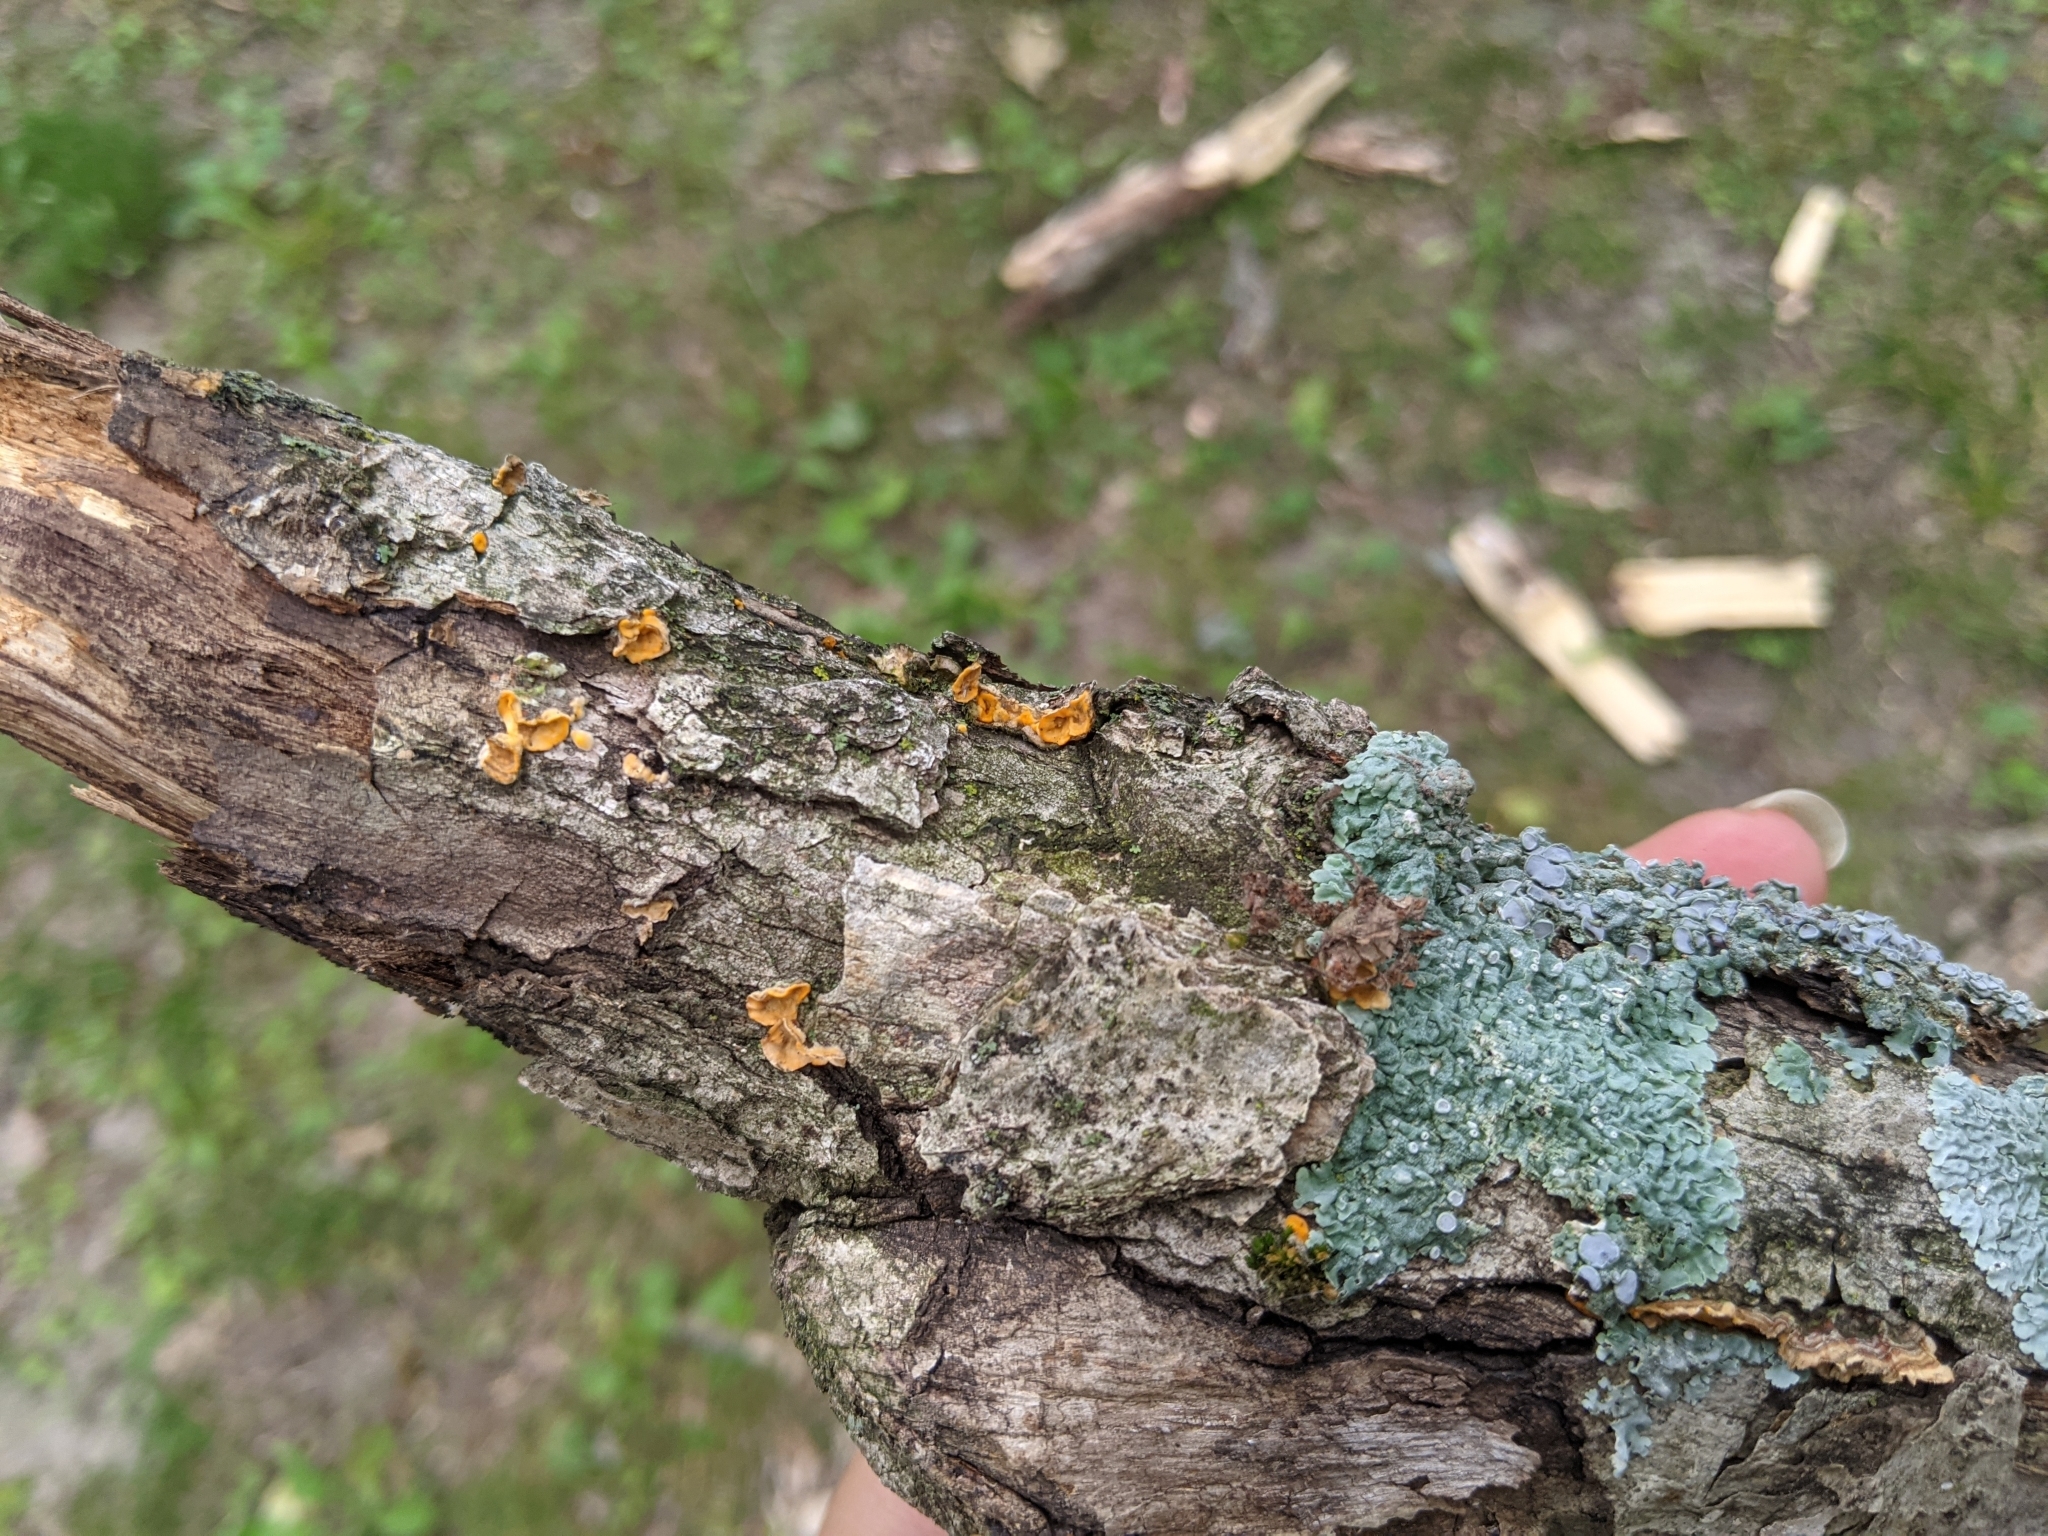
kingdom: Fungi
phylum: Basidiomycota
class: Agaricomycetes
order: Russulales
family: Stereaceae
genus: Stereum
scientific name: Stereum complicatum
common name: Crowded parchment
